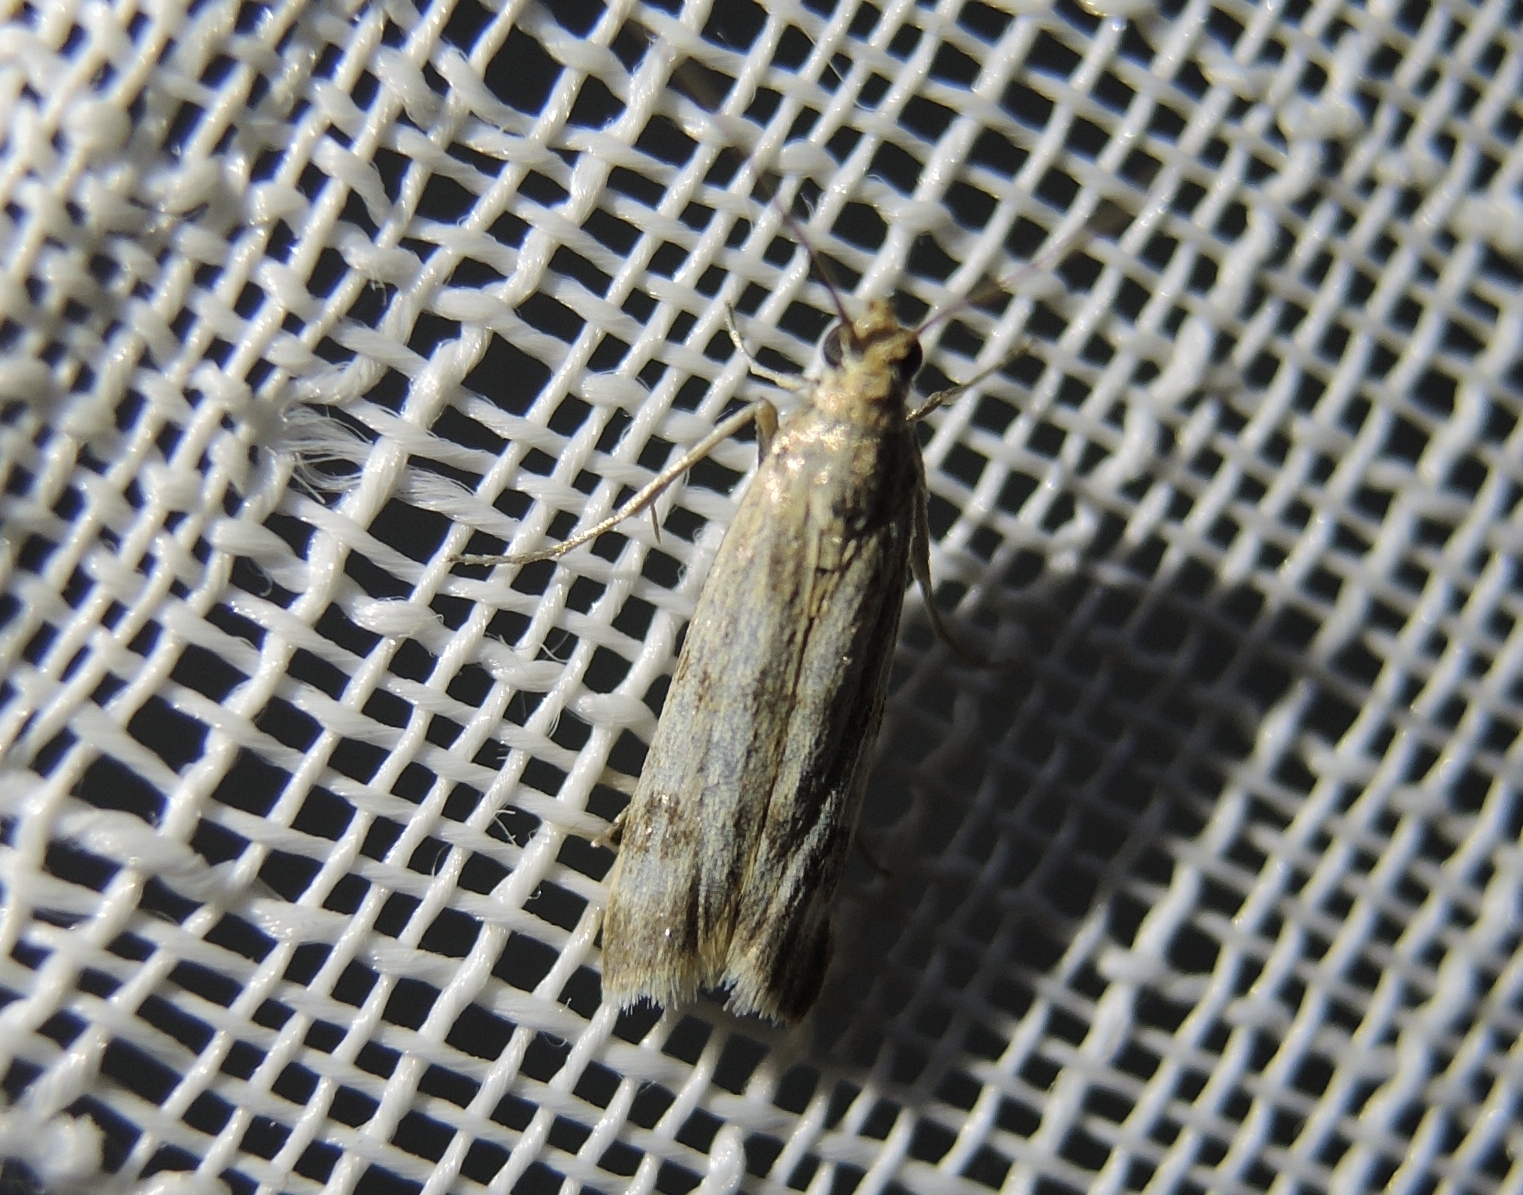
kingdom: Animalia
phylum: Arthropoda
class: Insecta
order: Lepidoptera
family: Pyralidae
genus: Homoeosoma
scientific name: Homoeosoma sinuella
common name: Twin-barred knot-horn
